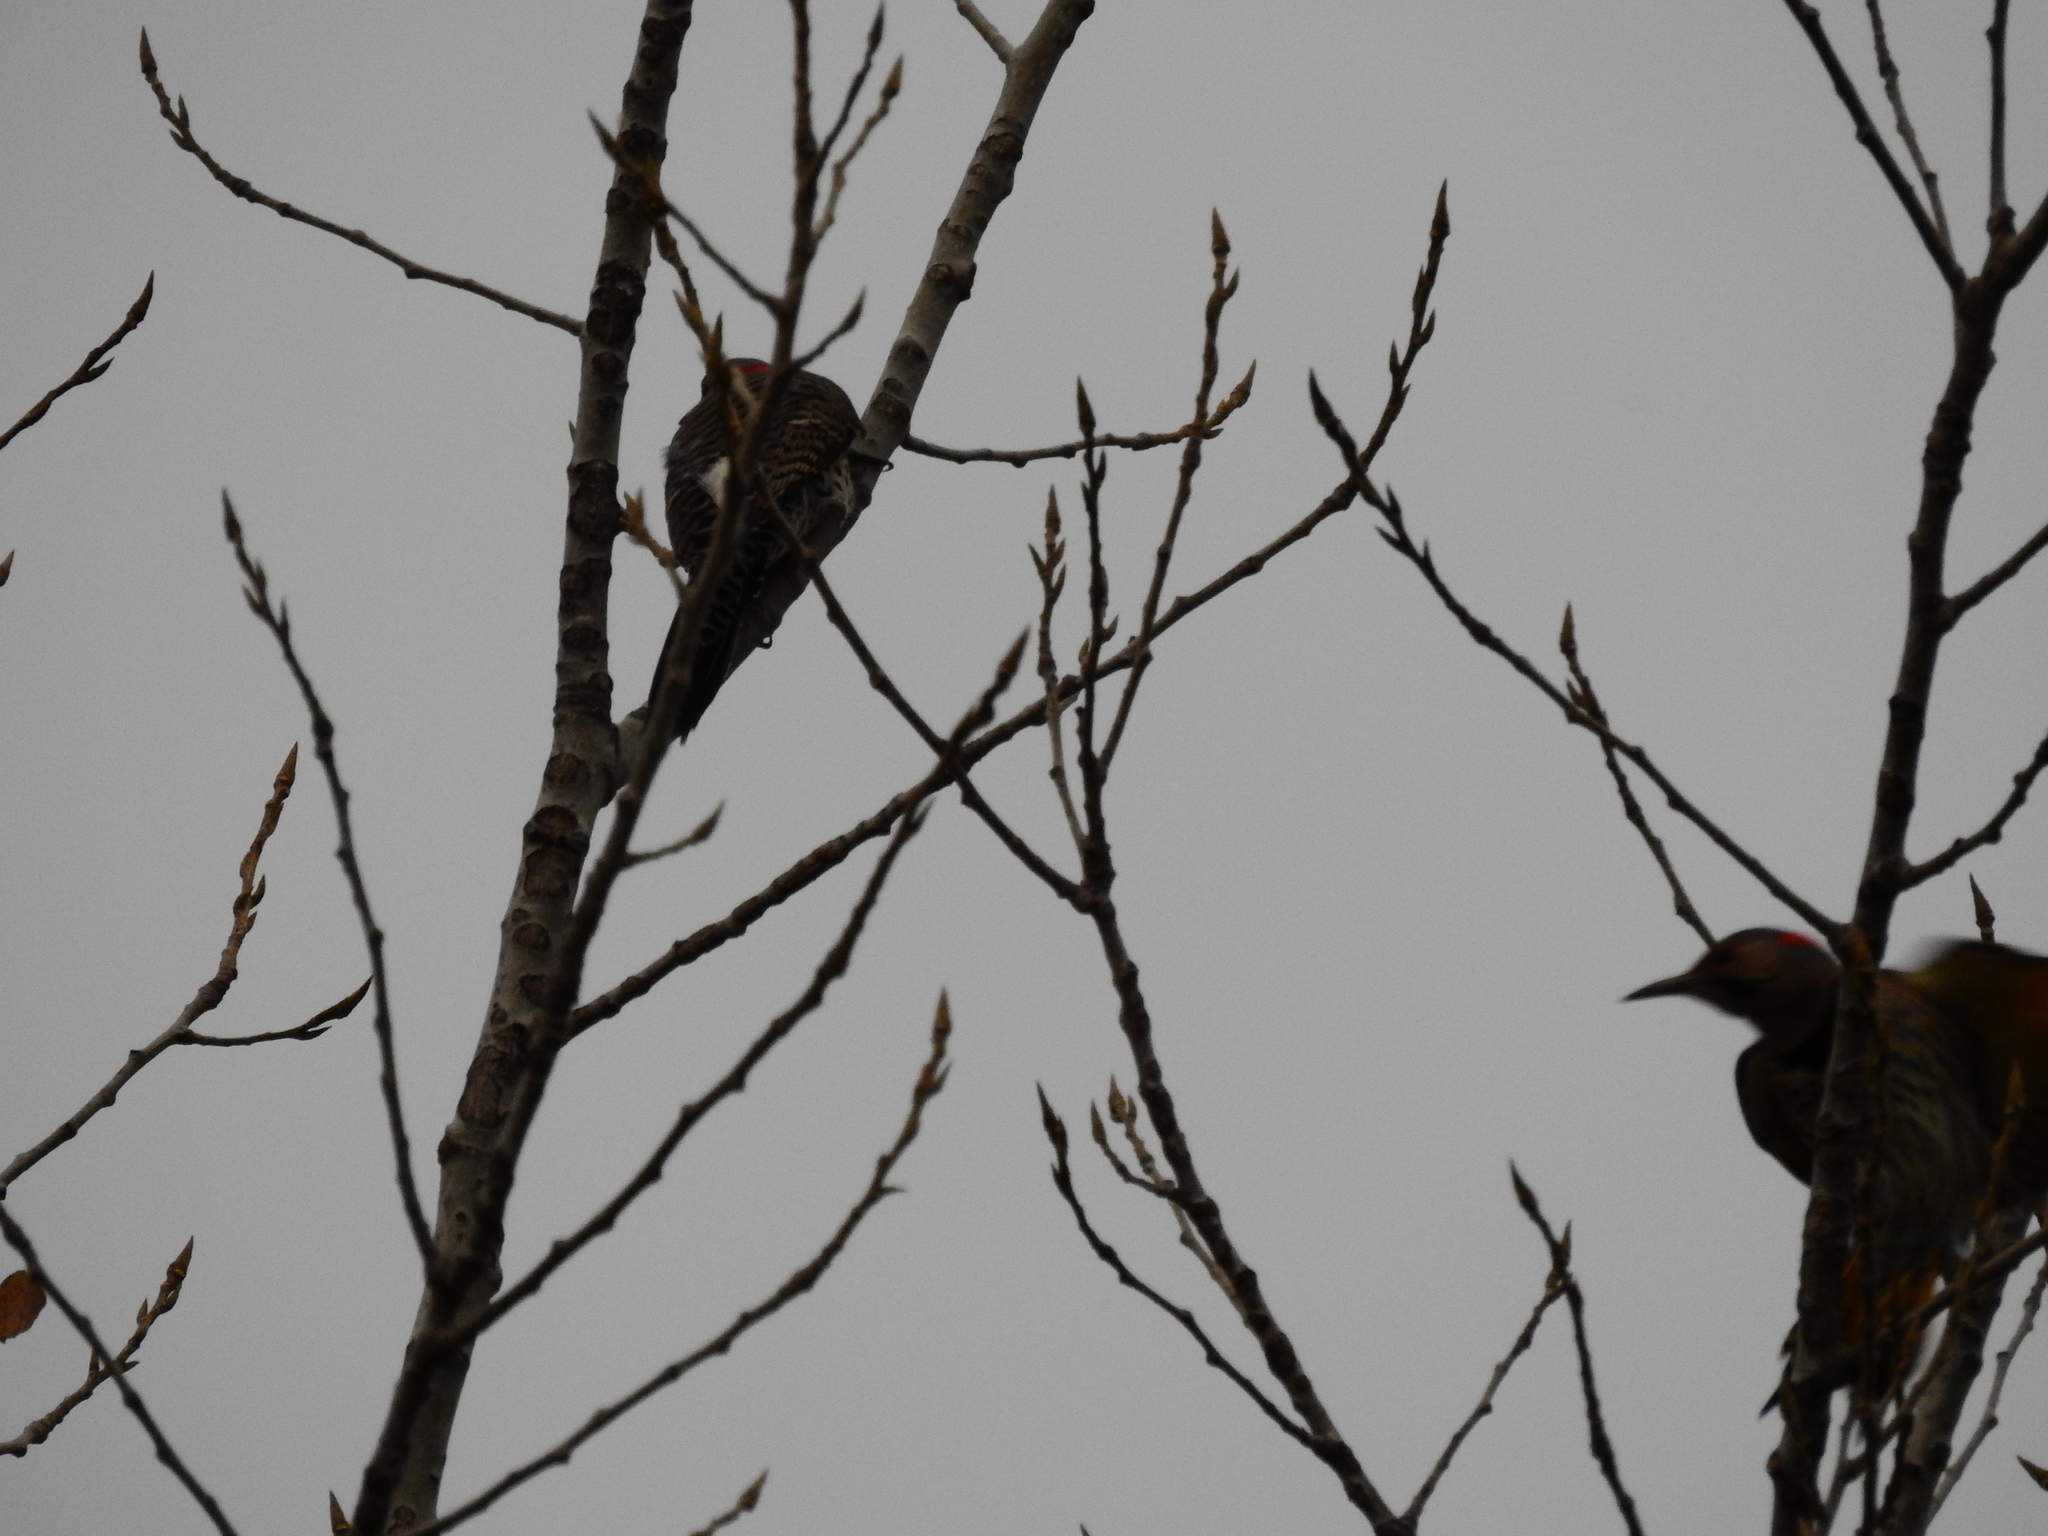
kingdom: Animalia
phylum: Chordata
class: Aves
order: Piciformes
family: Picidae
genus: Colaptes
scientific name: Colaptes auratus
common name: Northern flicker
